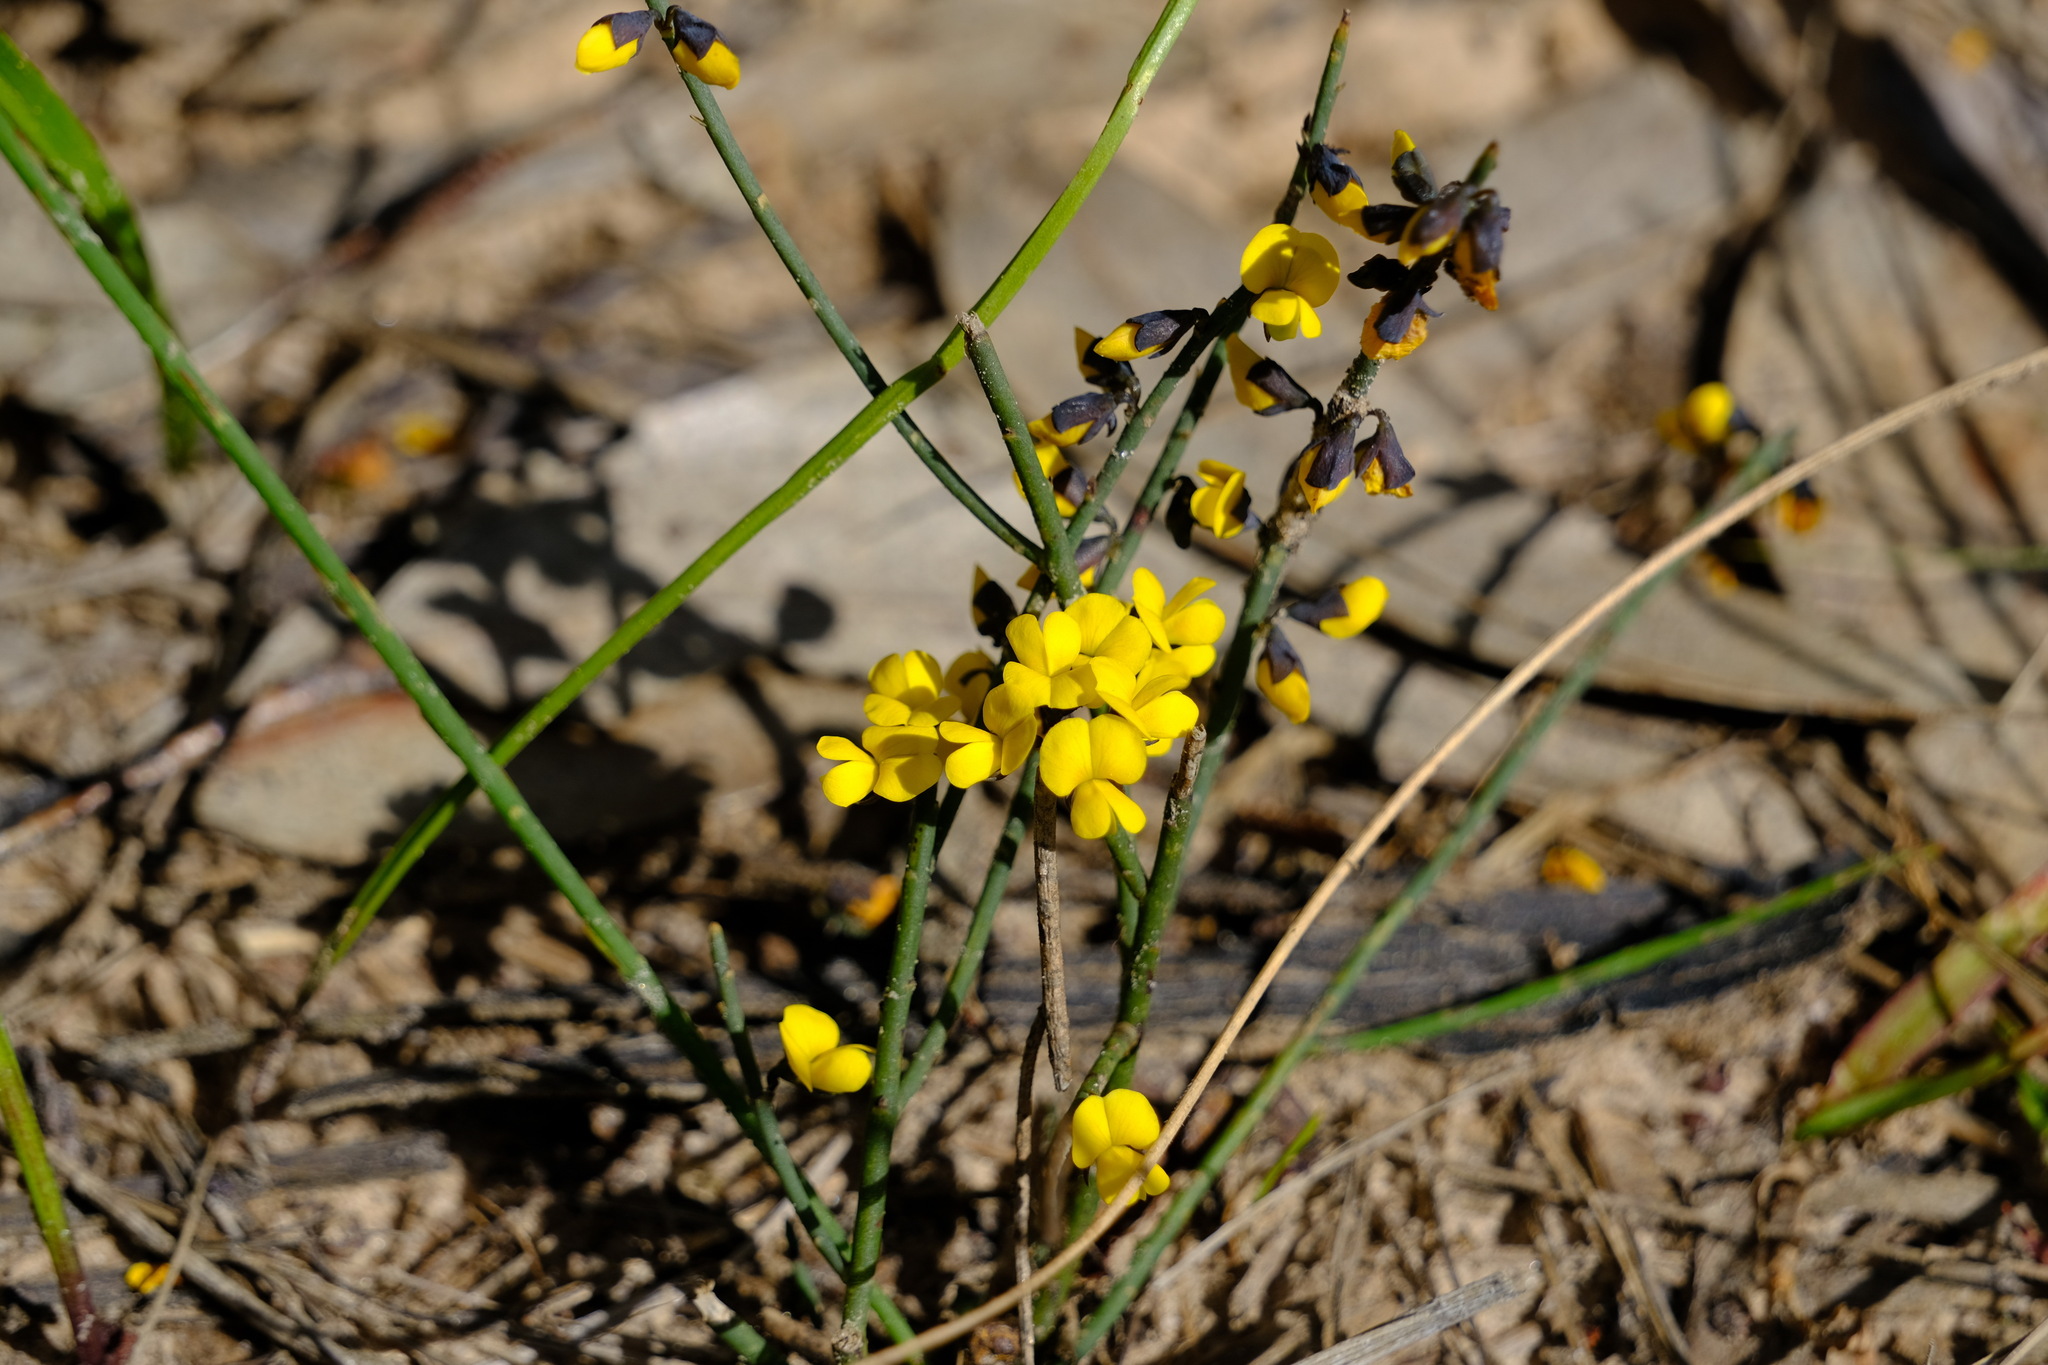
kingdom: Plantae
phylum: Tracheophyta
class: Magnoliopsida
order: Fabales
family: Fabaceae
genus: Sphaerolobium
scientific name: Sphaerolobium minus
